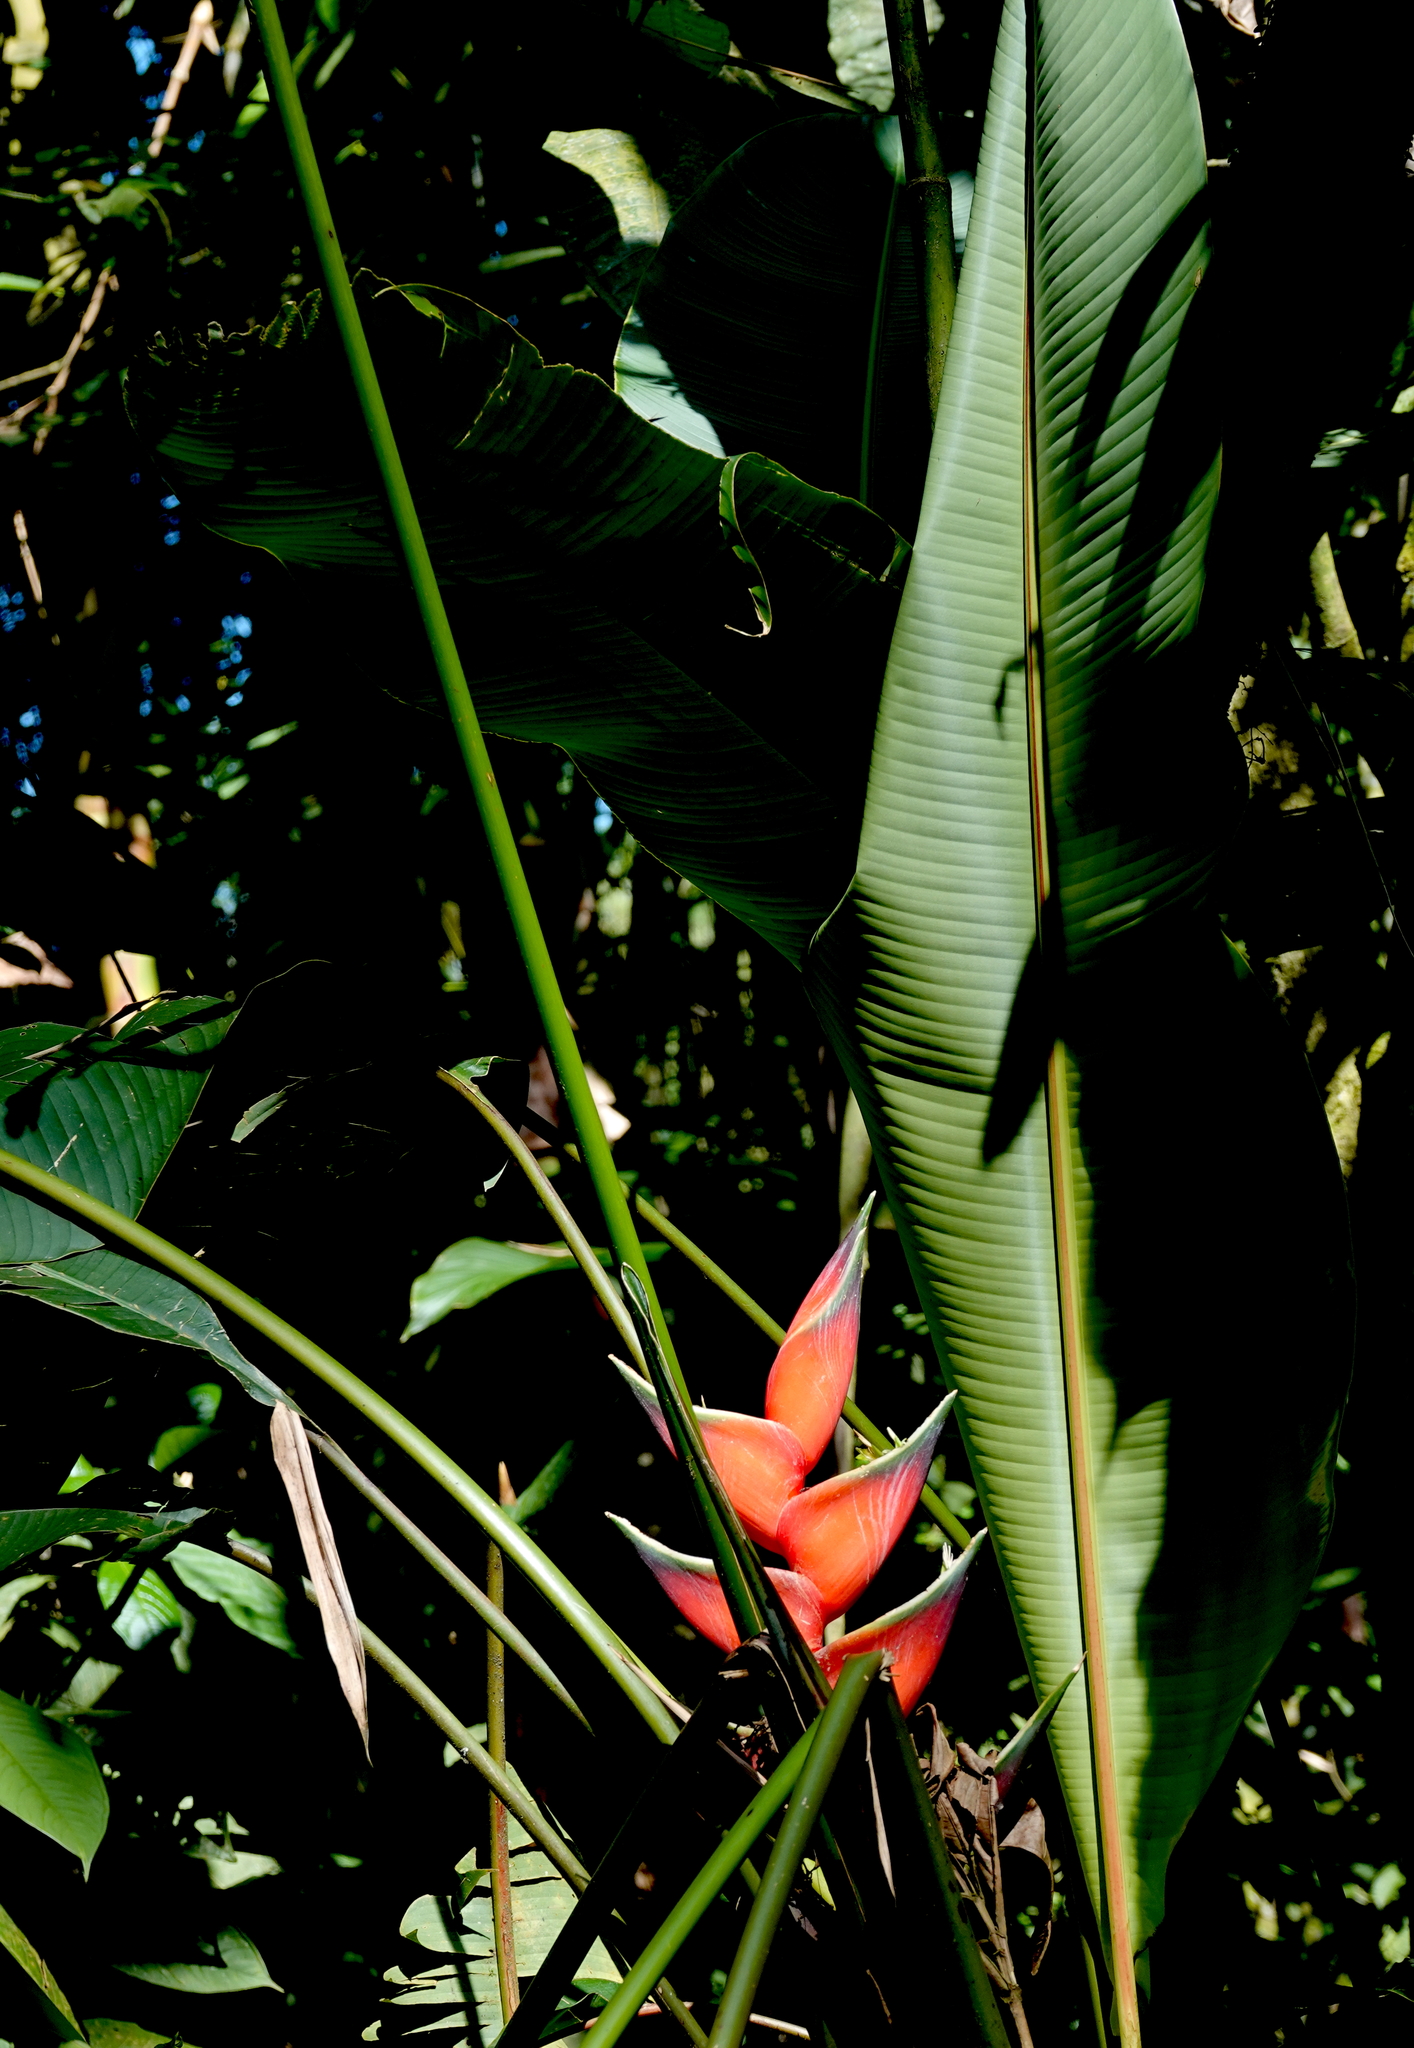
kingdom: Plantae
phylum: Tracheophyta
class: Liliopsida
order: Zingiberales
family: Heliconiaceae
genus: Heliconia
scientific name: Heliconia bihai
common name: Macaw flower
